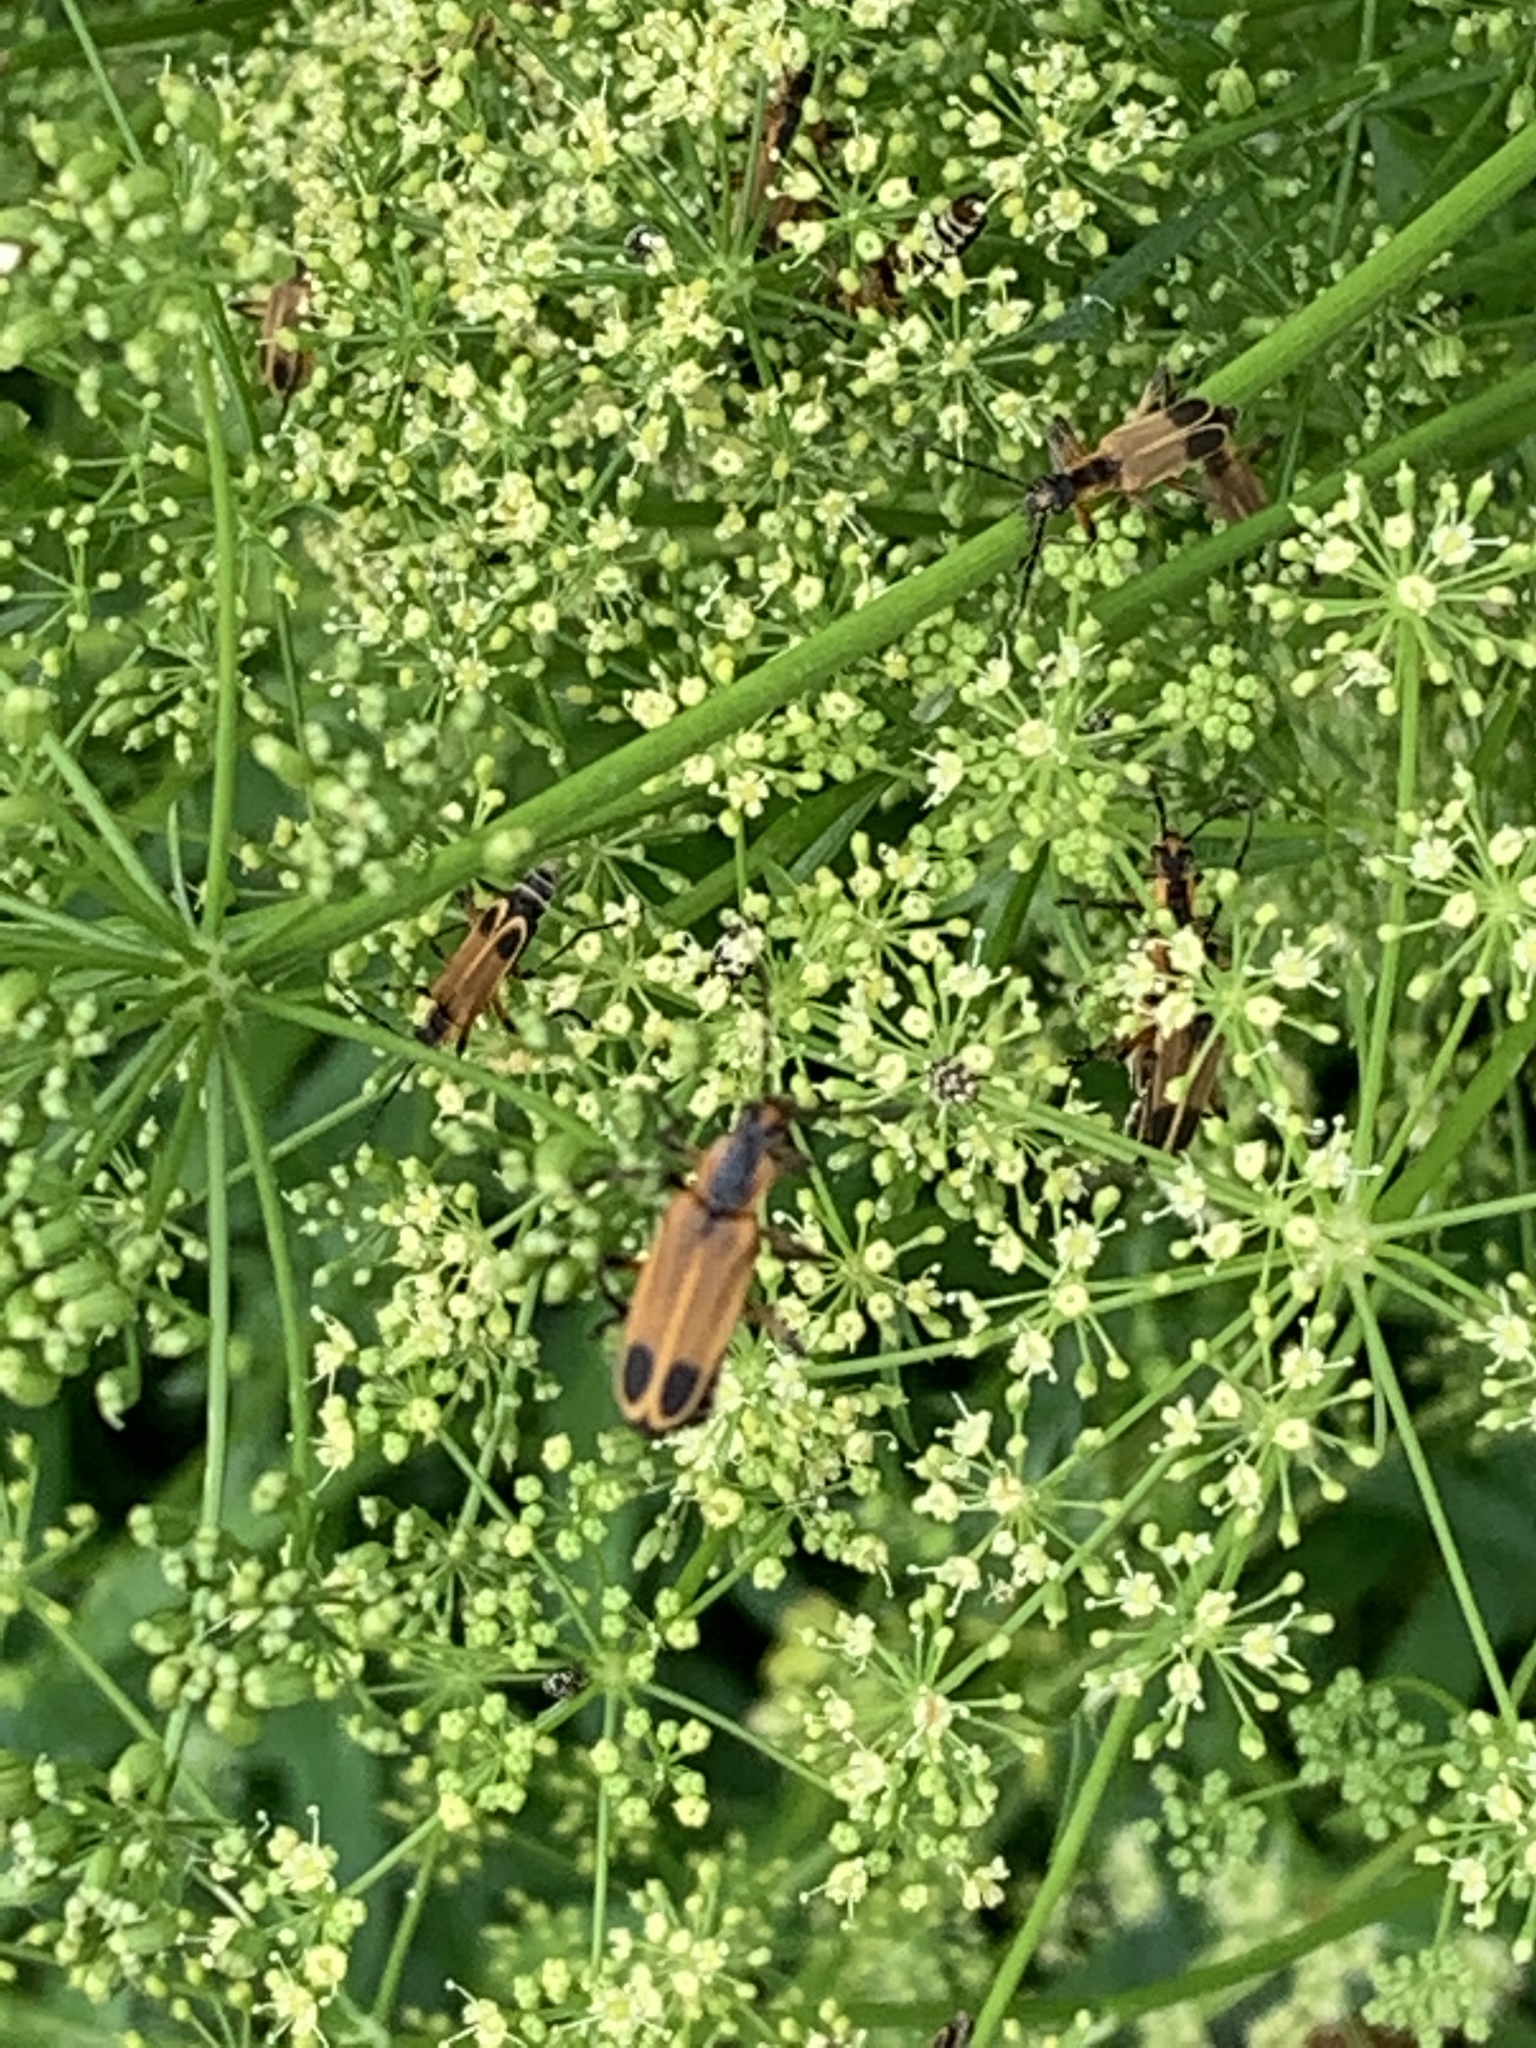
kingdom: Animalia
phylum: Arthropoda
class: Insecta
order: Coleoptera
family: Cantharidae
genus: Chauliognathus
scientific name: Chauliognathus marginatus
